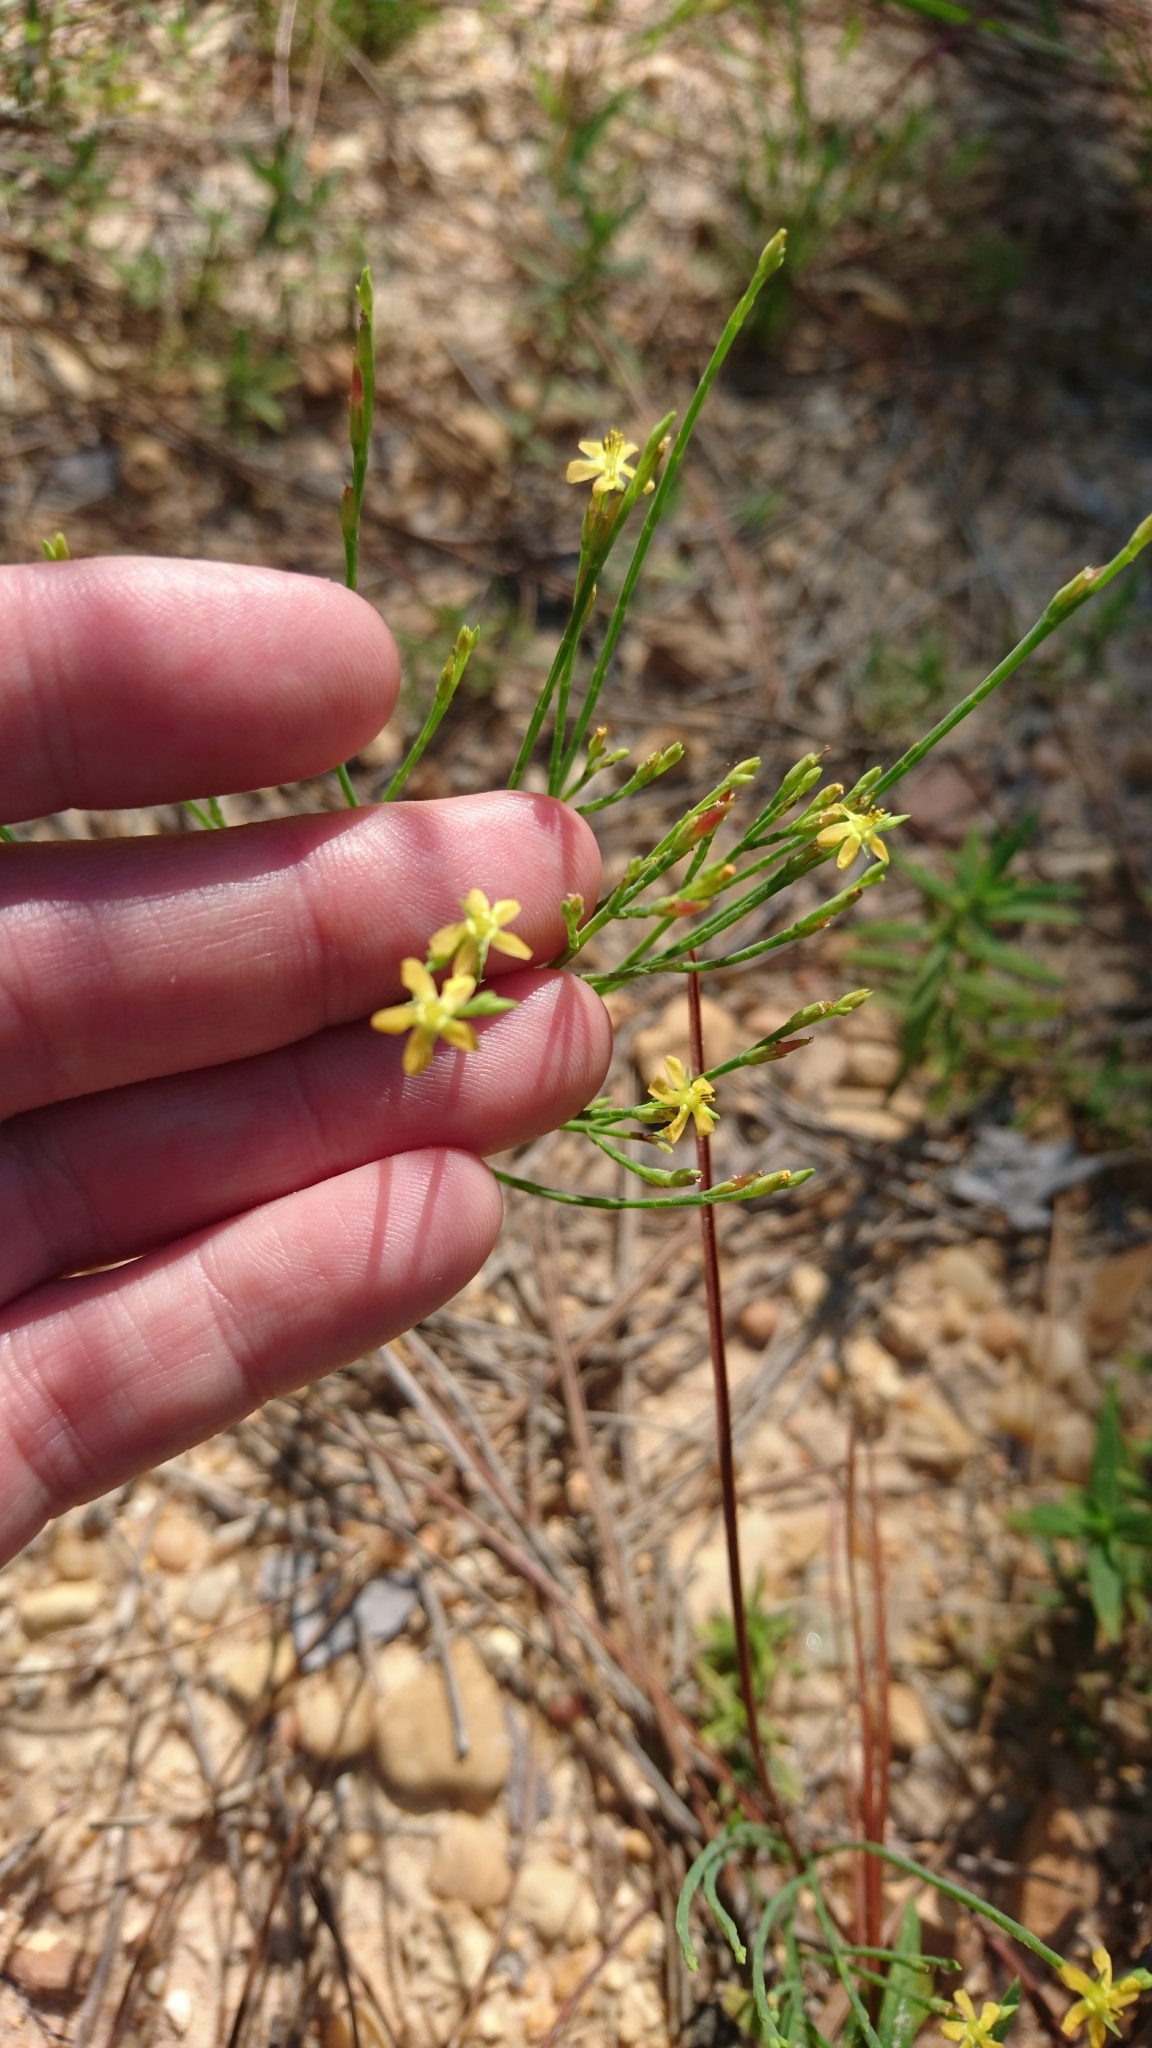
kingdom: Plantae
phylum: Tracheophyta
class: Magnoliopsida
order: Malpighiales
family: Hypericaceae
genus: Hypericum
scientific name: Hypericum gentianoides
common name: Gentian-leaved st. john's-wort
